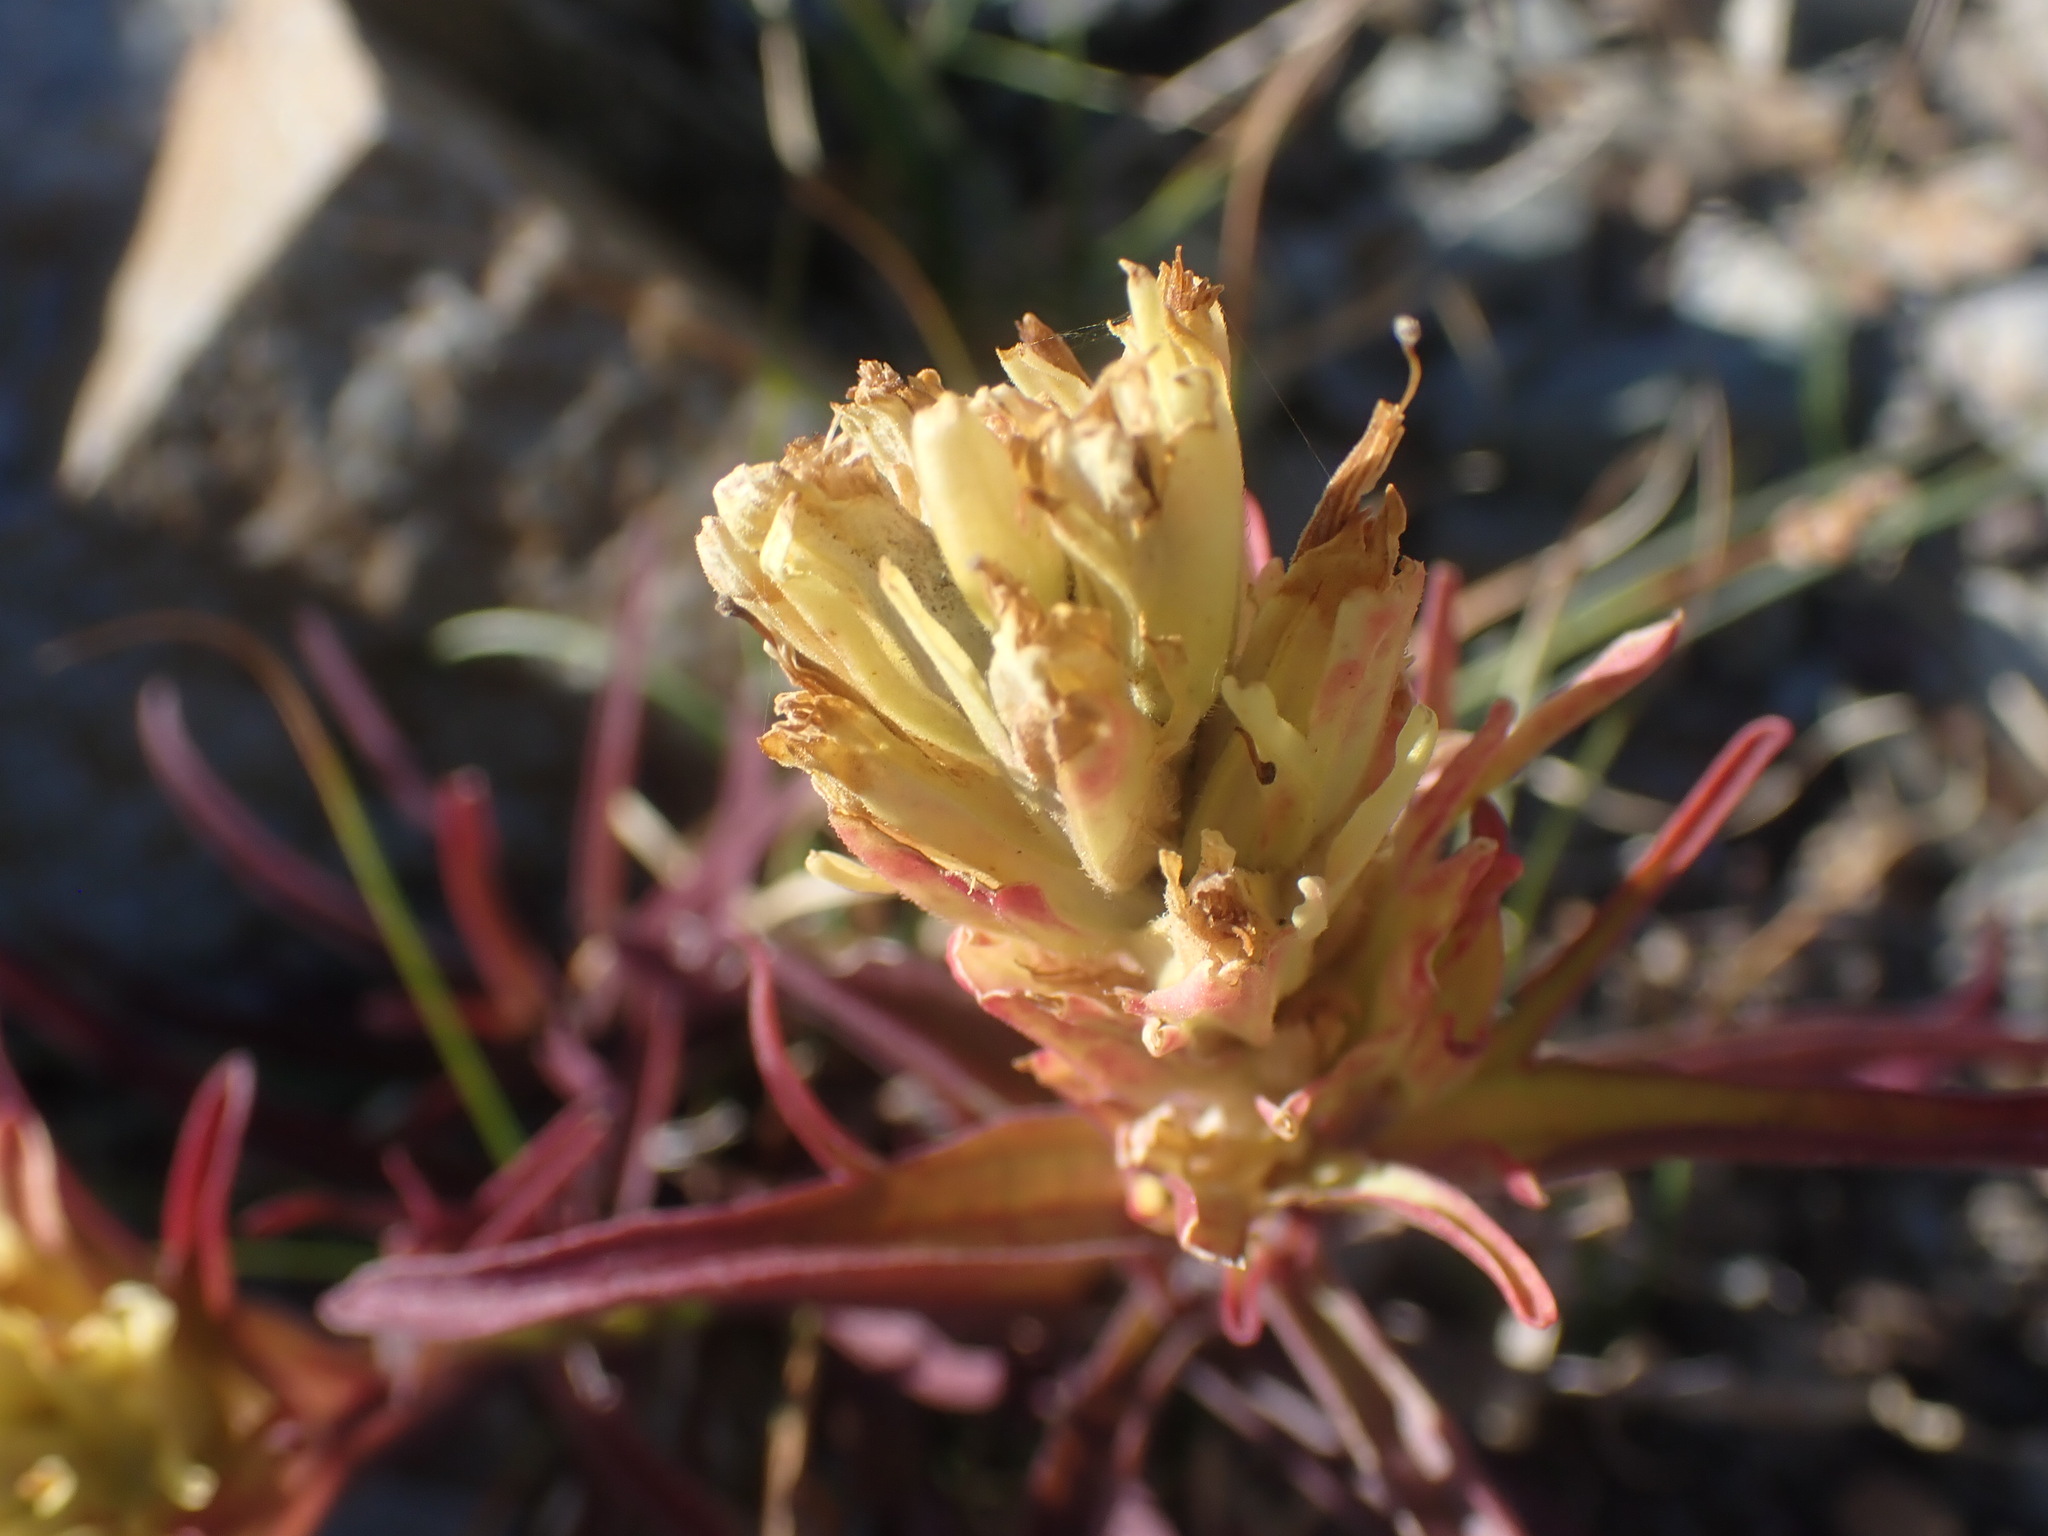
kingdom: Plantae
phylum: Tracheophyta
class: Magnoliopsida
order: Lamiales
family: Orobanchaceae
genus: Castilleja
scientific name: Castilleja lutescens
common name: Yellowish paintbrush
